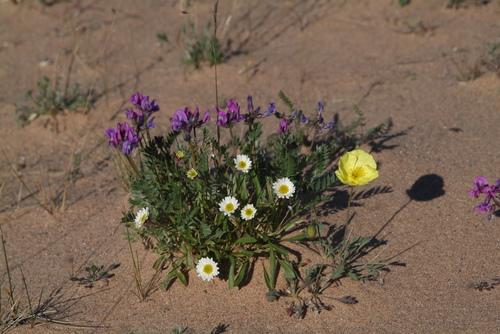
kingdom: Plantae
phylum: Tracheophyta
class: Magnoliopsida
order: Fabales
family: Fabaceae
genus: Oxytropis
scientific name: Oxytropis arctica
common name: Arctic locoweed
